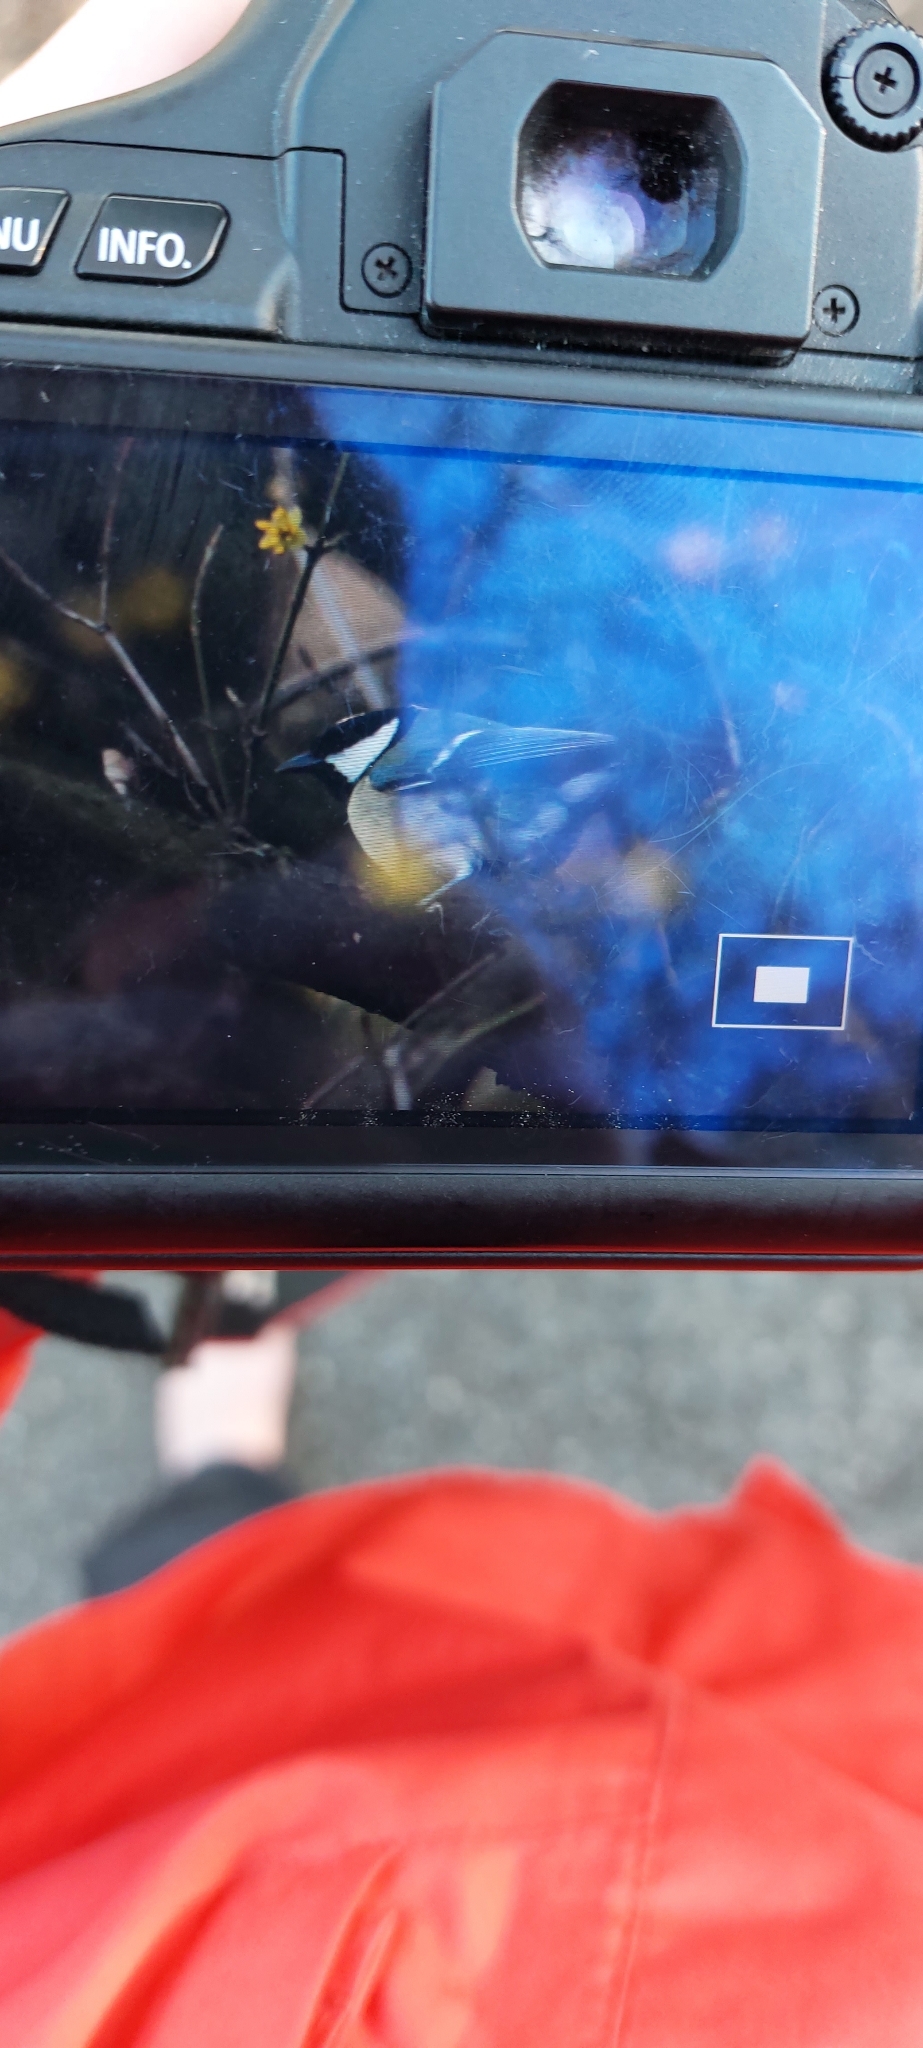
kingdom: Animalia
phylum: Chordata
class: Aves
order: Passeriformes
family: Paridae
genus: Parus
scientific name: Parus major
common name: Great tit
